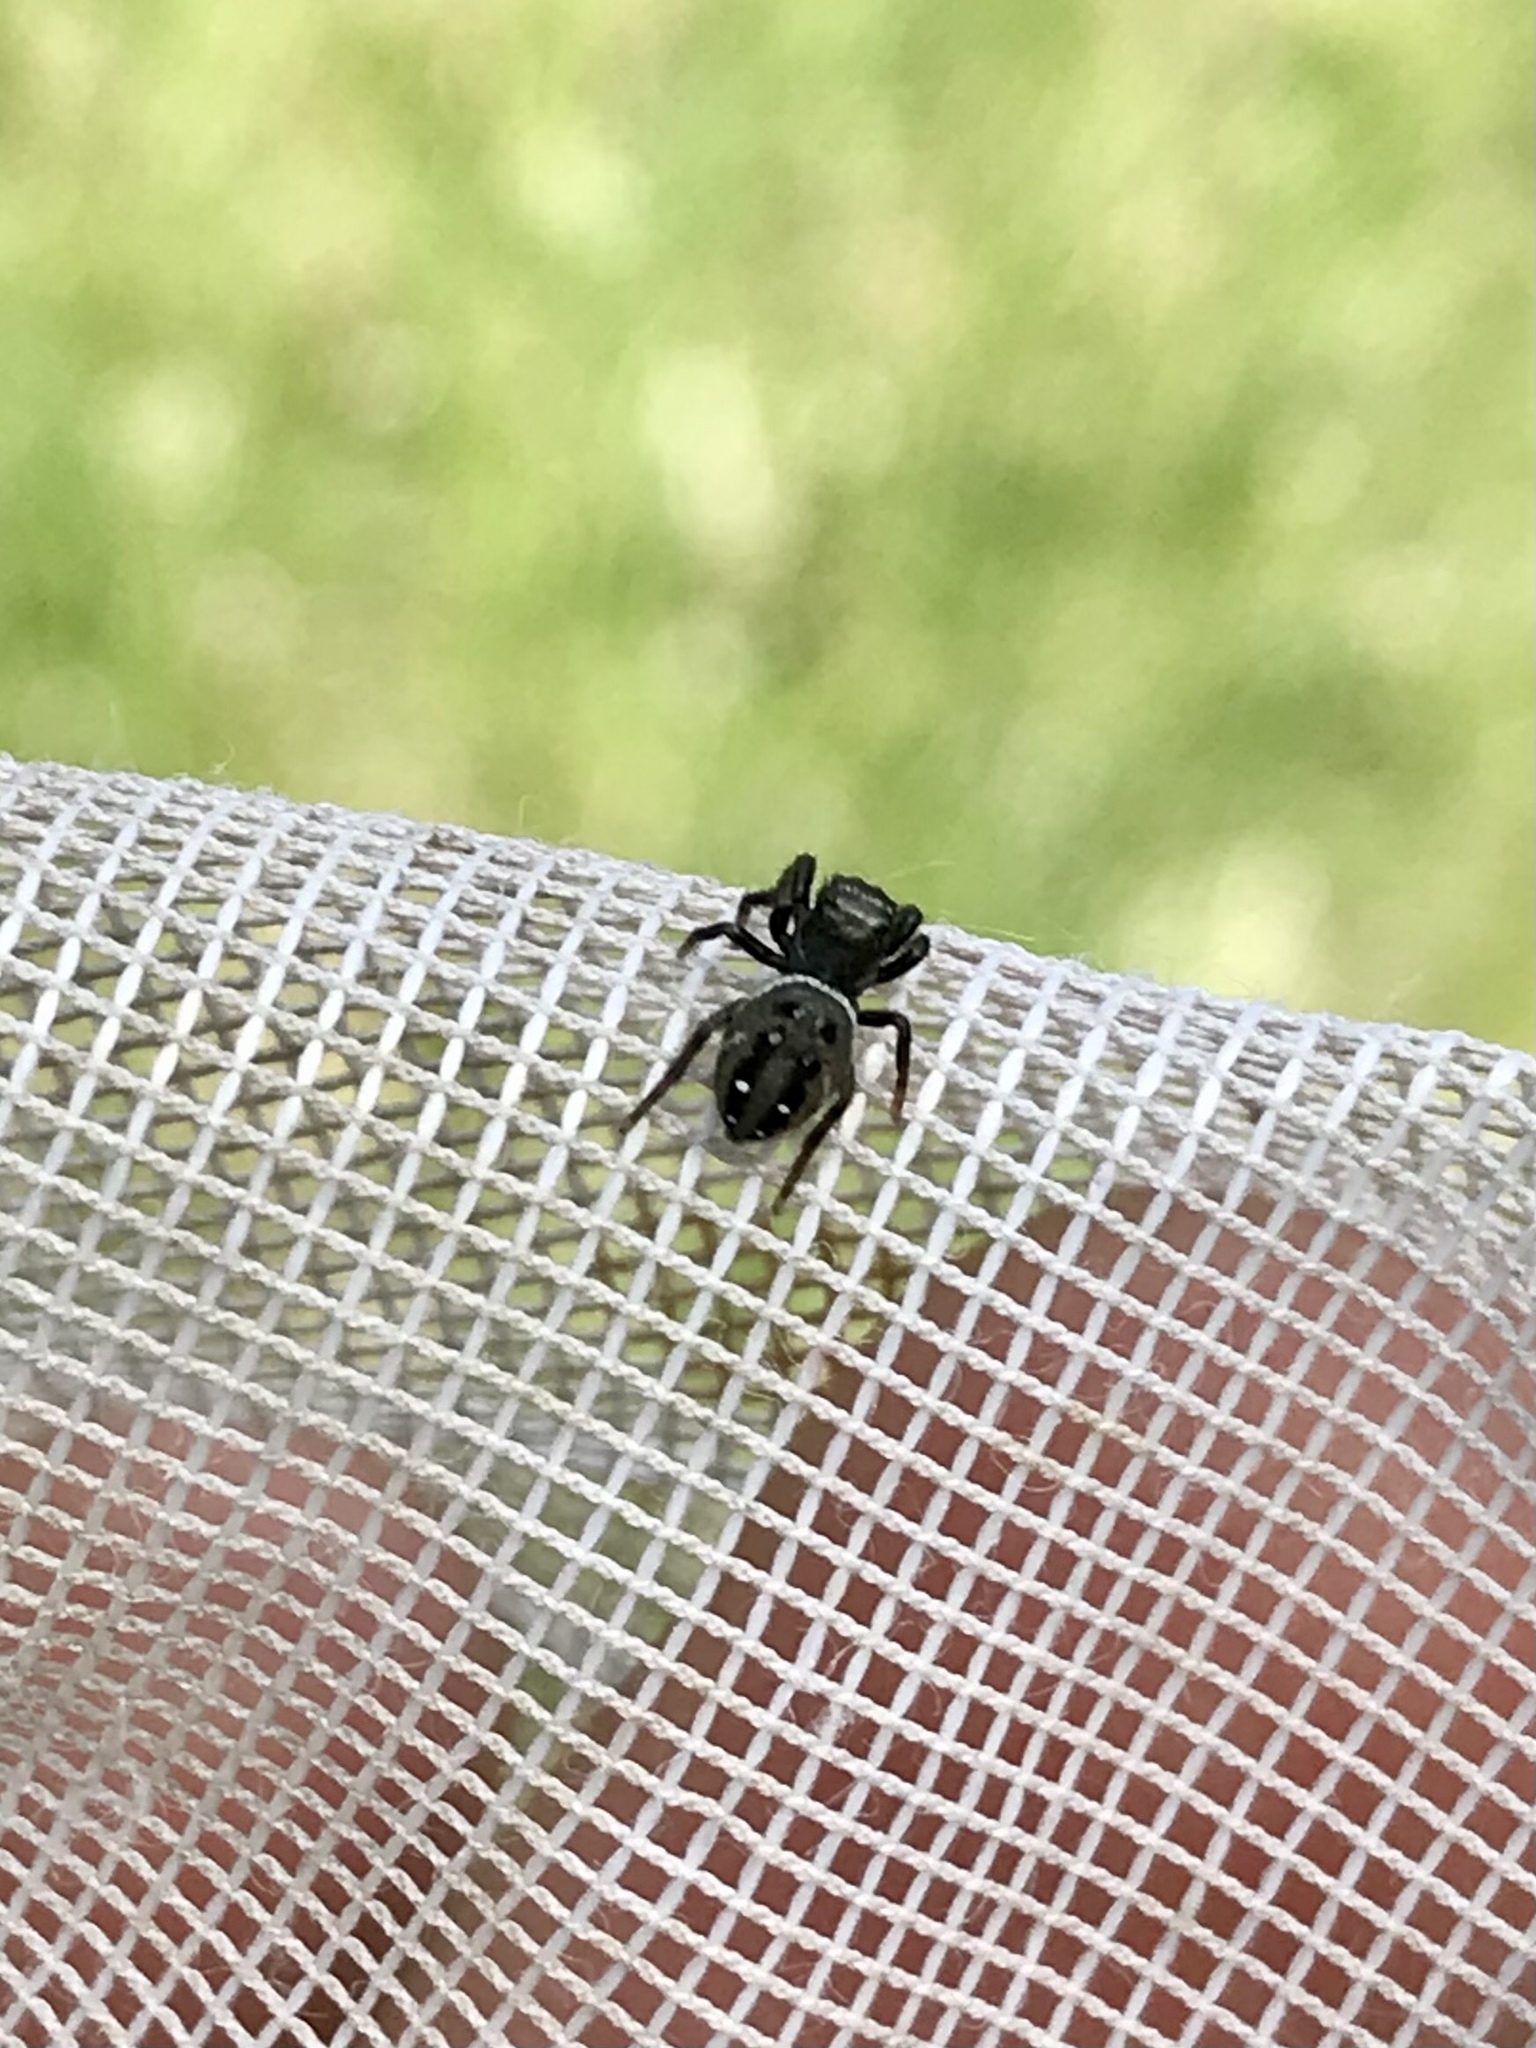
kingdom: Animalia
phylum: Arthropoda
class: Arachnida
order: Araneae
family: Salticidae
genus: Phidippus
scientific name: Phidippus clarus
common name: Brilliant jumping spider
